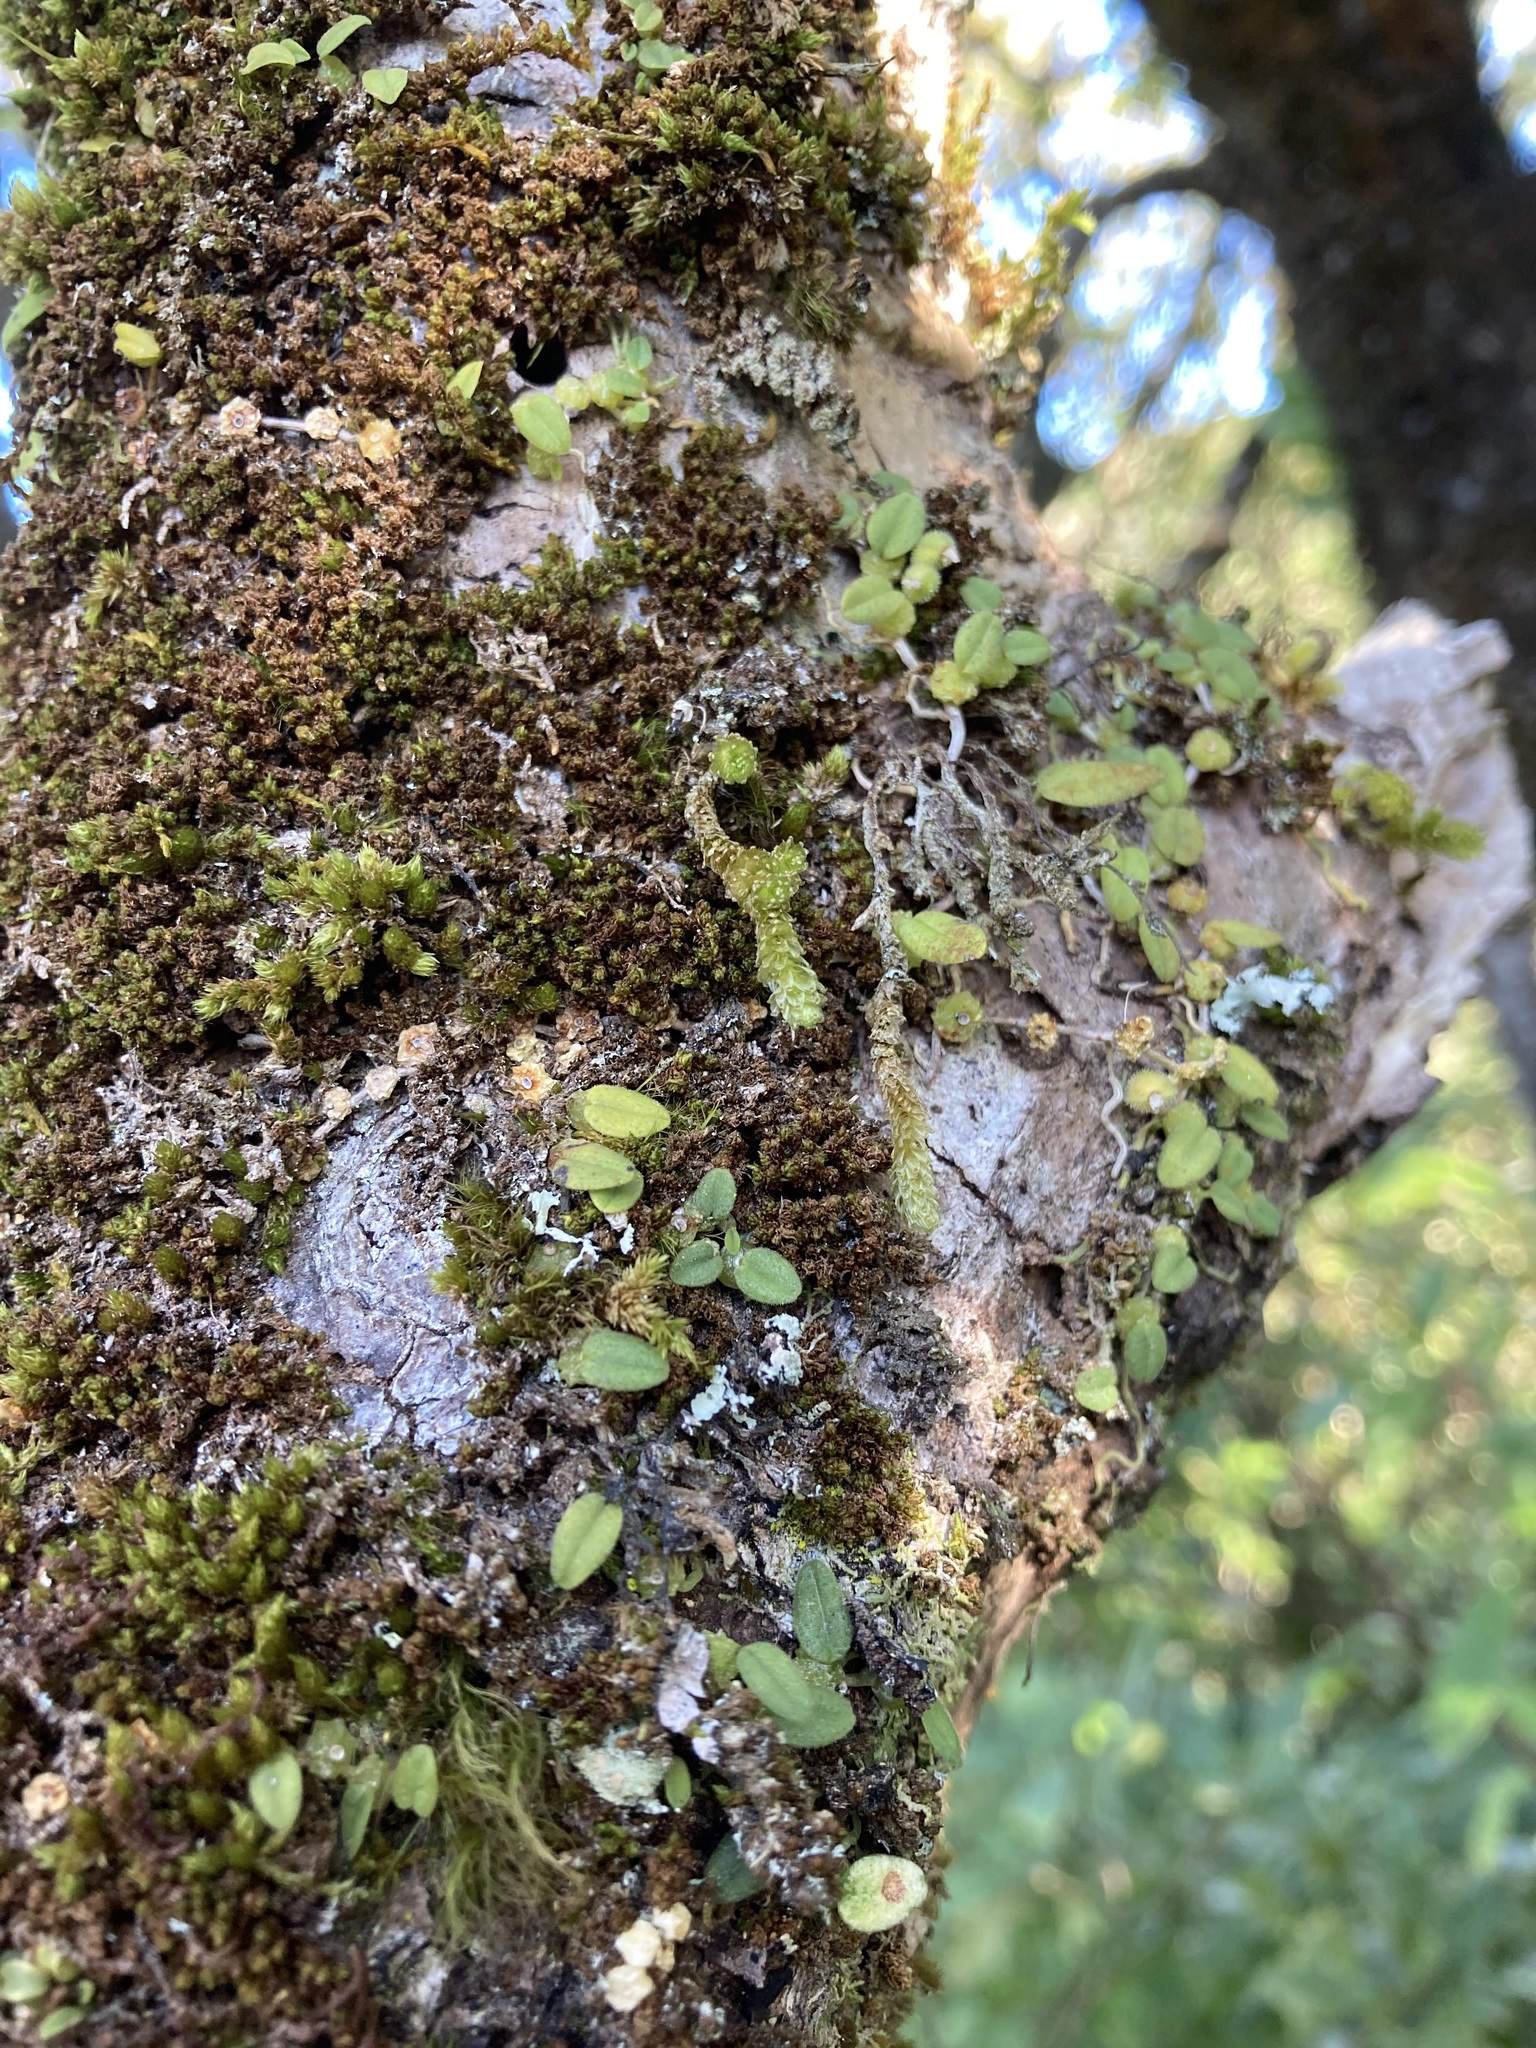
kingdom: Plantae
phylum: Tracheophyta
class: Liliopsida
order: Asparagales
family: Orchidaceae
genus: Bulbophyllum
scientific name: Bulbophyllum pygmaeum
